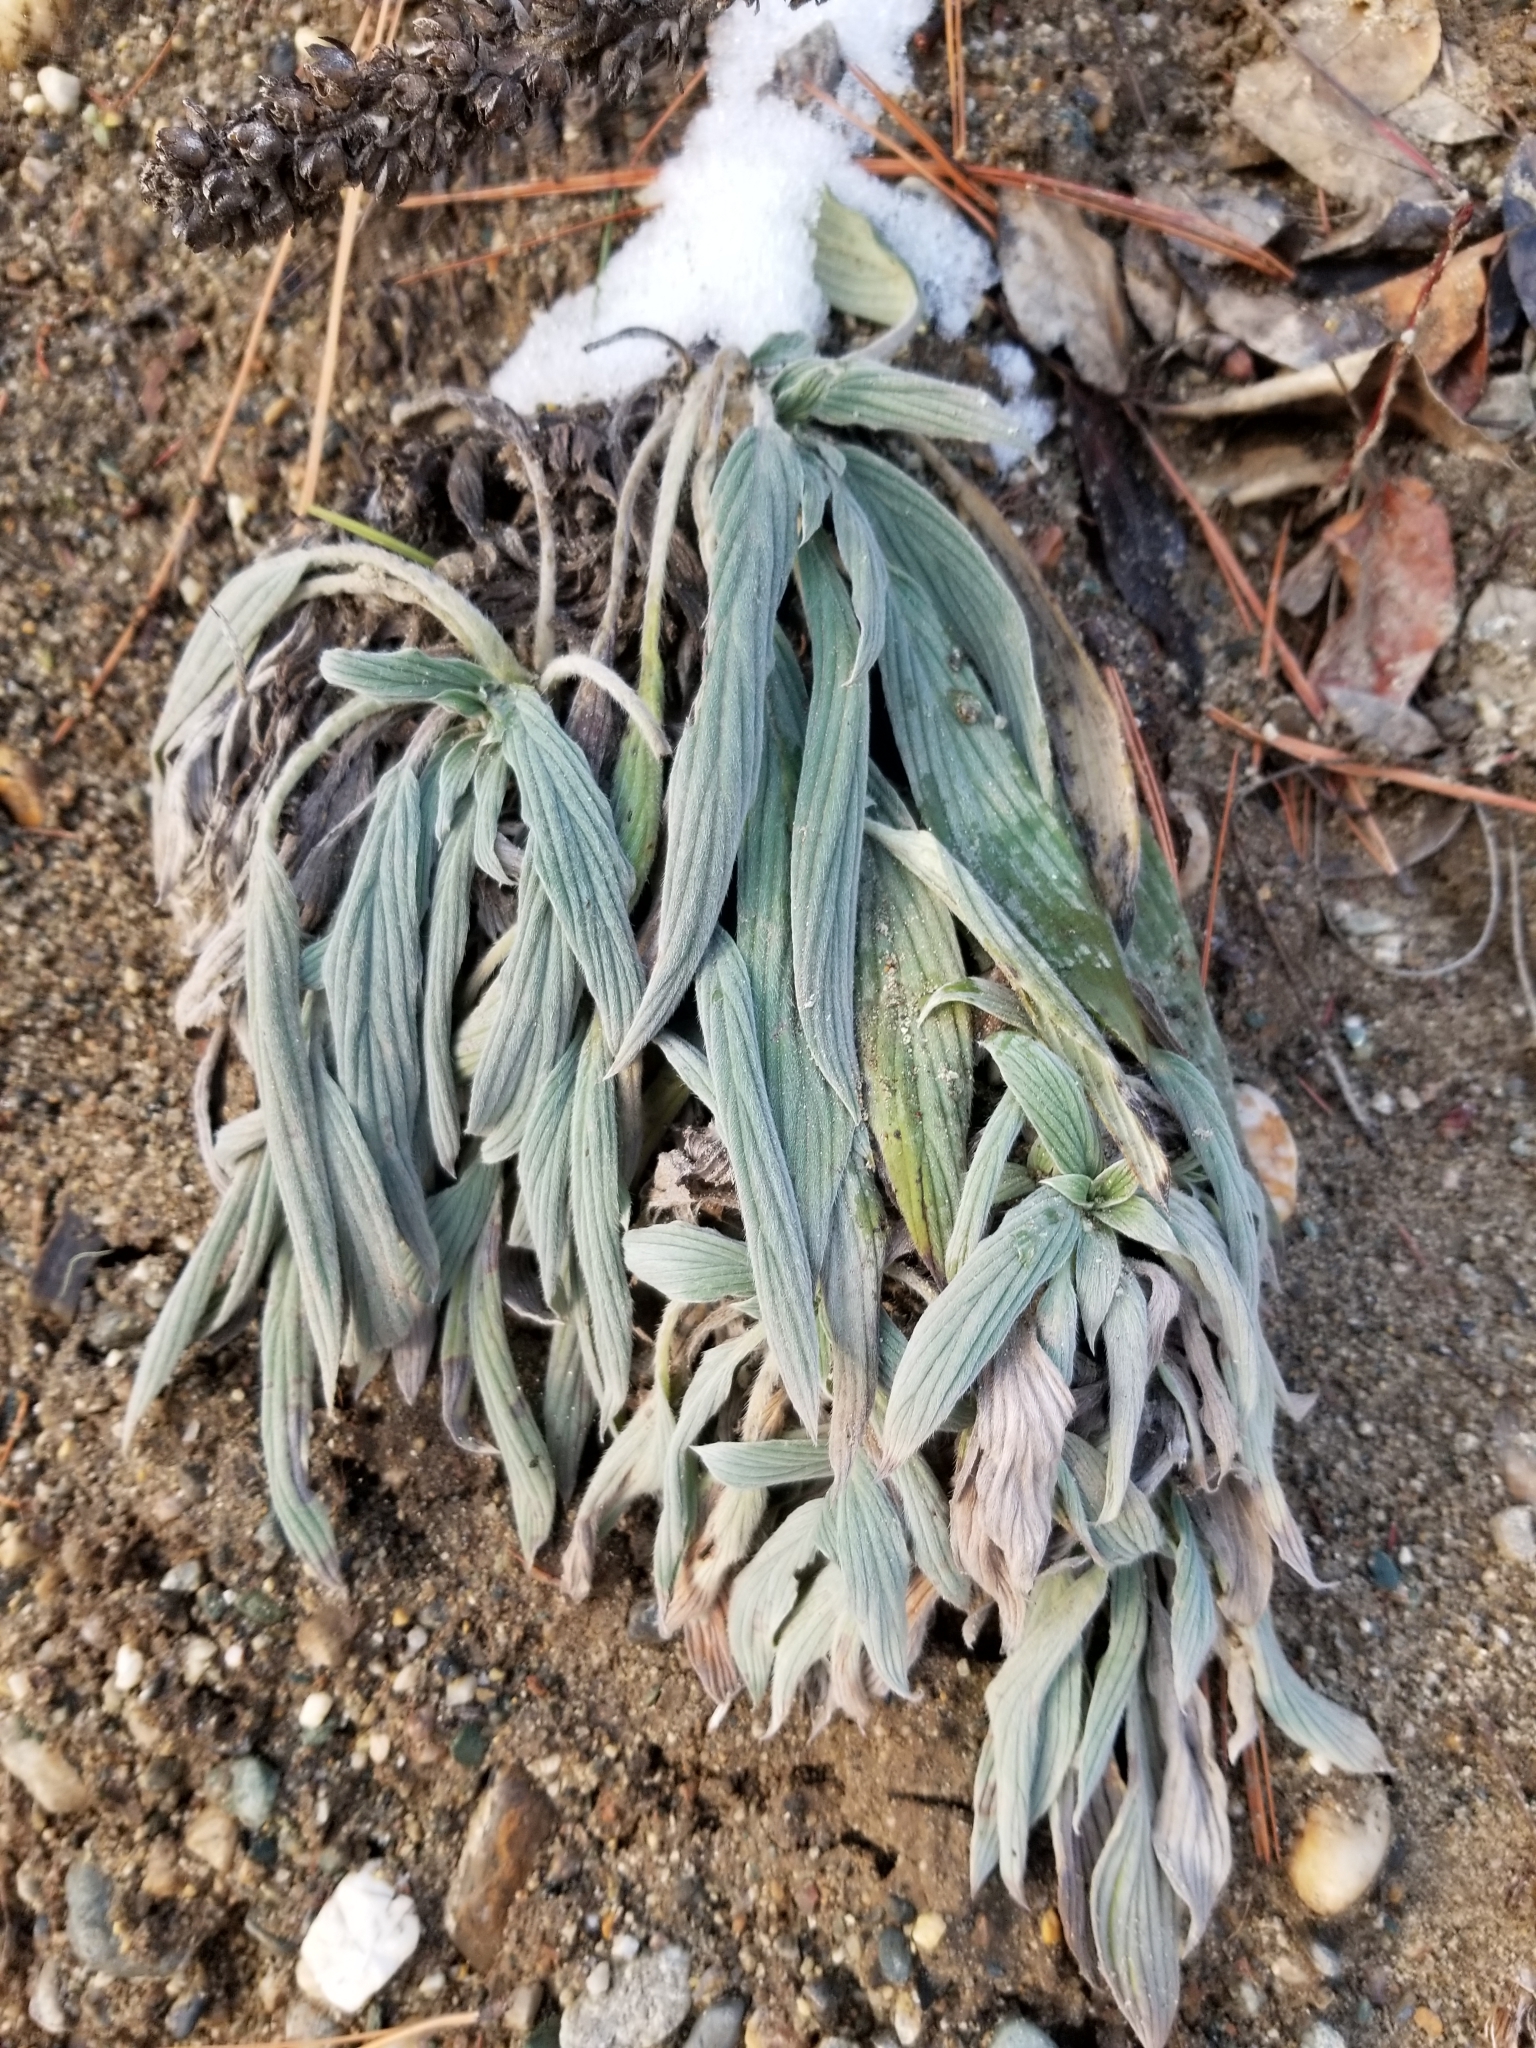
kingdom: Plantae
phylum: Tracheophyta
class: Magnoliopsida
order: Boraginales
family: Hydrophyllaceae
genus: Phacelia
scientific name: Phacelia hastata
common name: Silver-leaved phacelia
